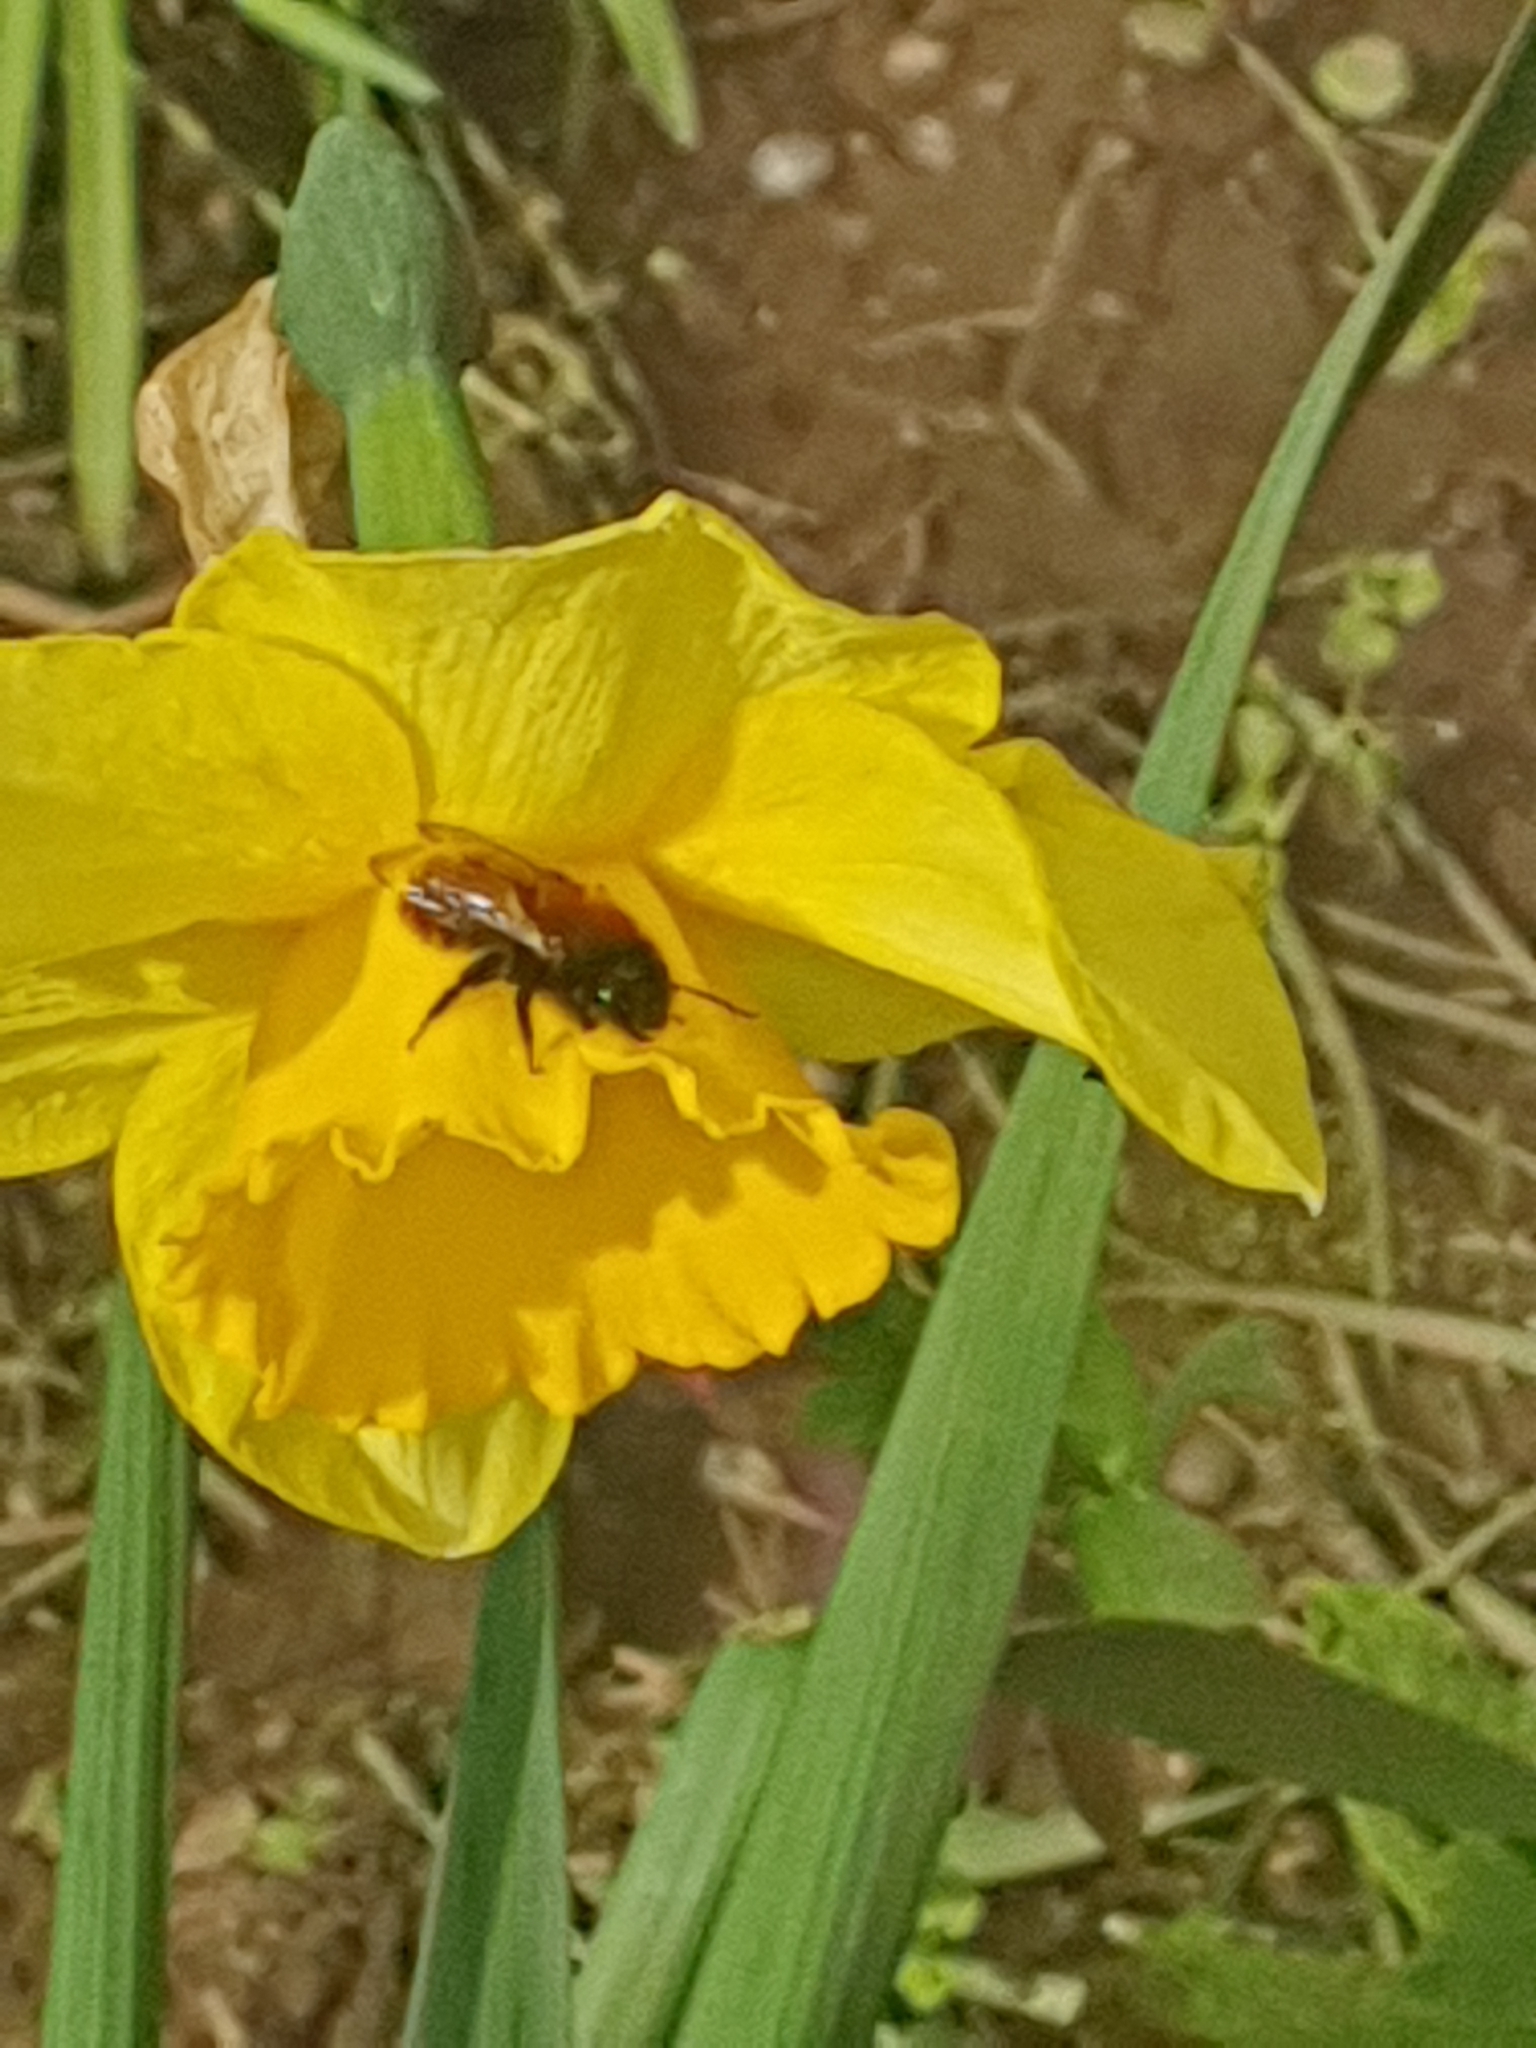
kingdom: Animalia
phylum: Arthropoda
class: Insecta
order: Hymenoptera
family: Andrenidae
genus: Andrena
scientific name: Andrena fulva
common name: Tawny mining bee
